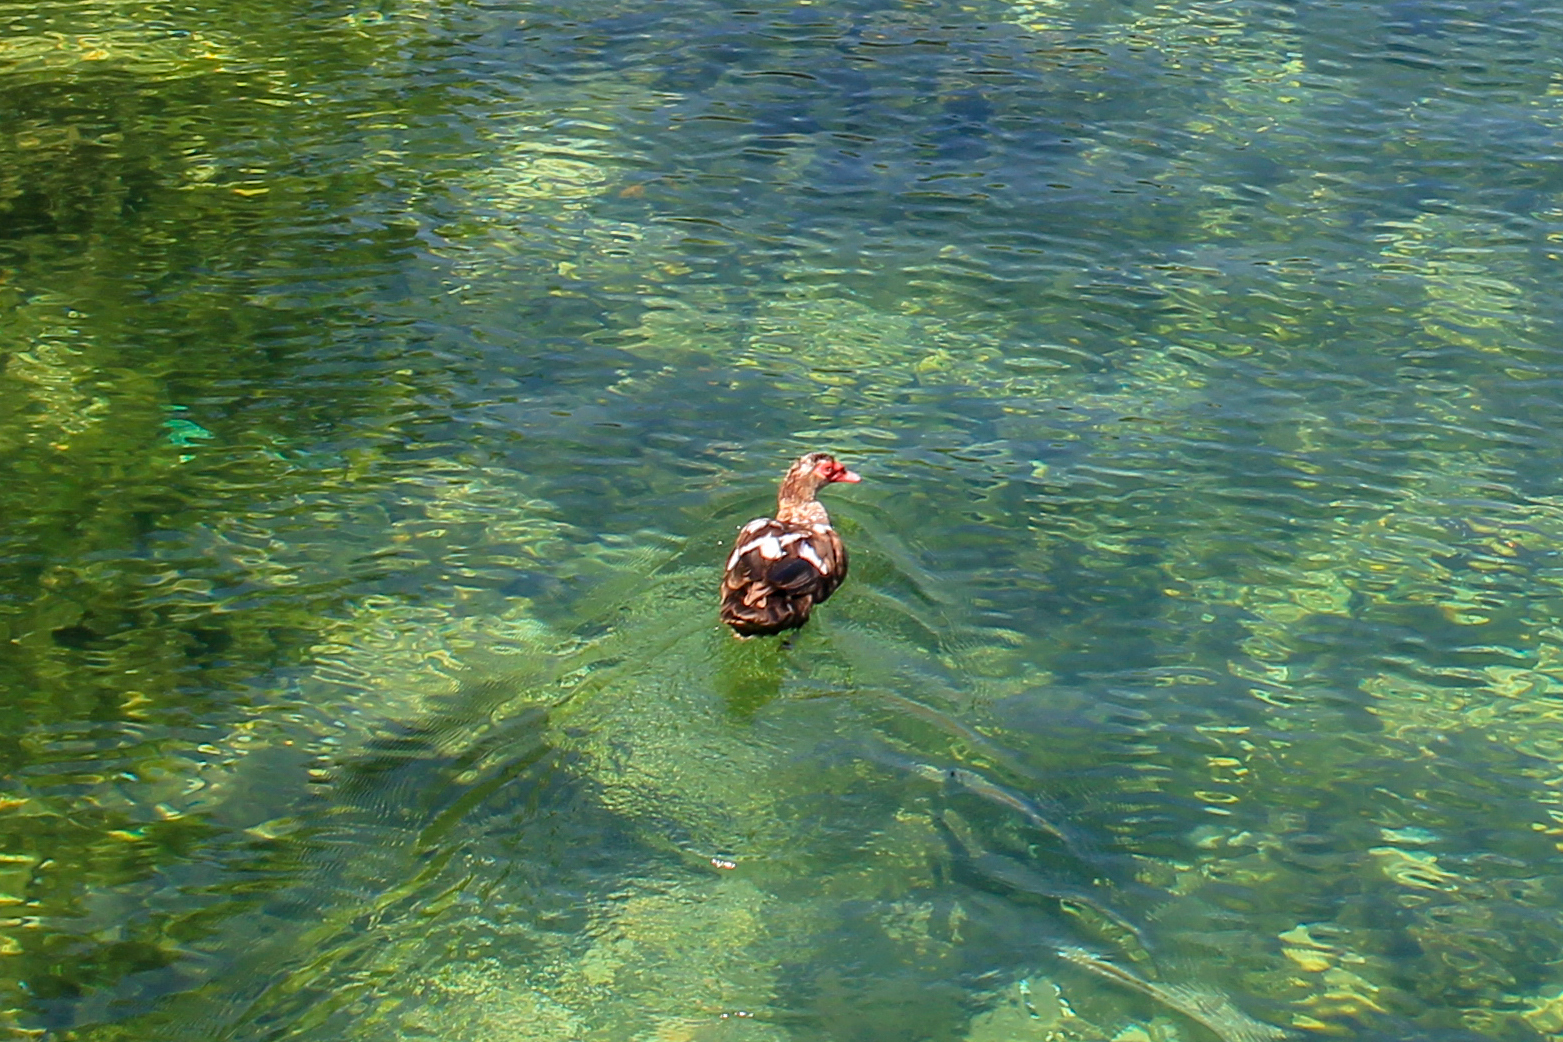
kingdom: Animalia
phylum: Chordata
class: Aves
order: Anseriformes
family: Anatidae
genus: Cairina
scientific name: Cairina moschata
